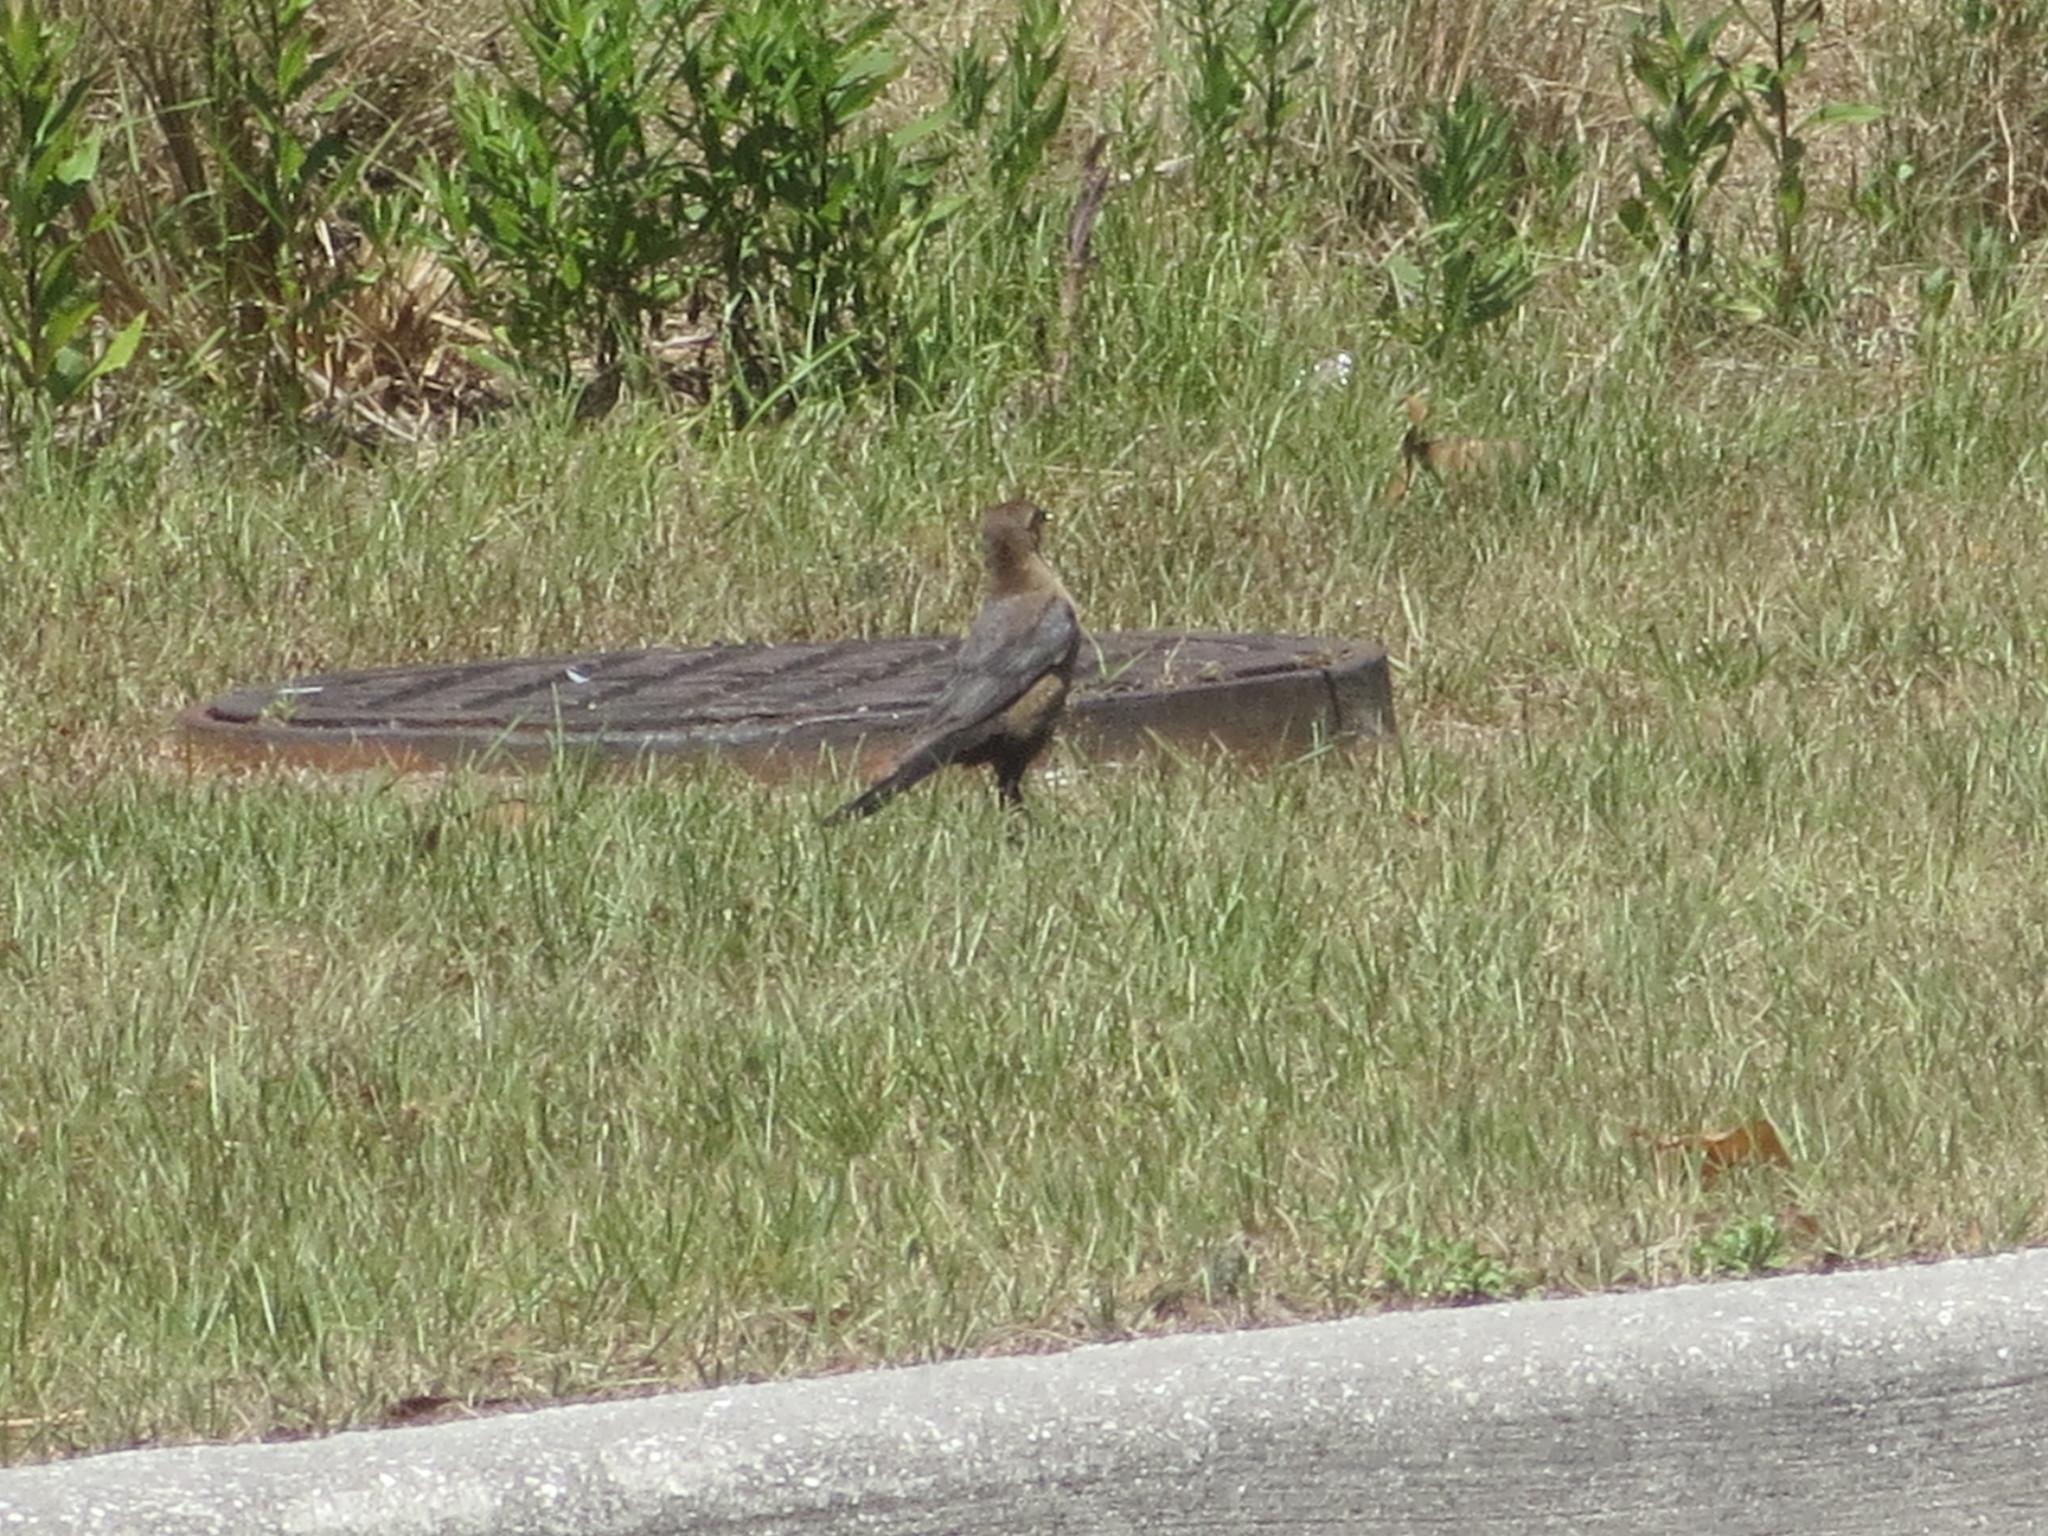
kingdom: Animalia
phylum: Chordata
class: Aves
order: Passeriformes
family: Icteridae
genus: Quiscalus
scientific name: Quiscalus major
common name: Boat-tailed grackle
